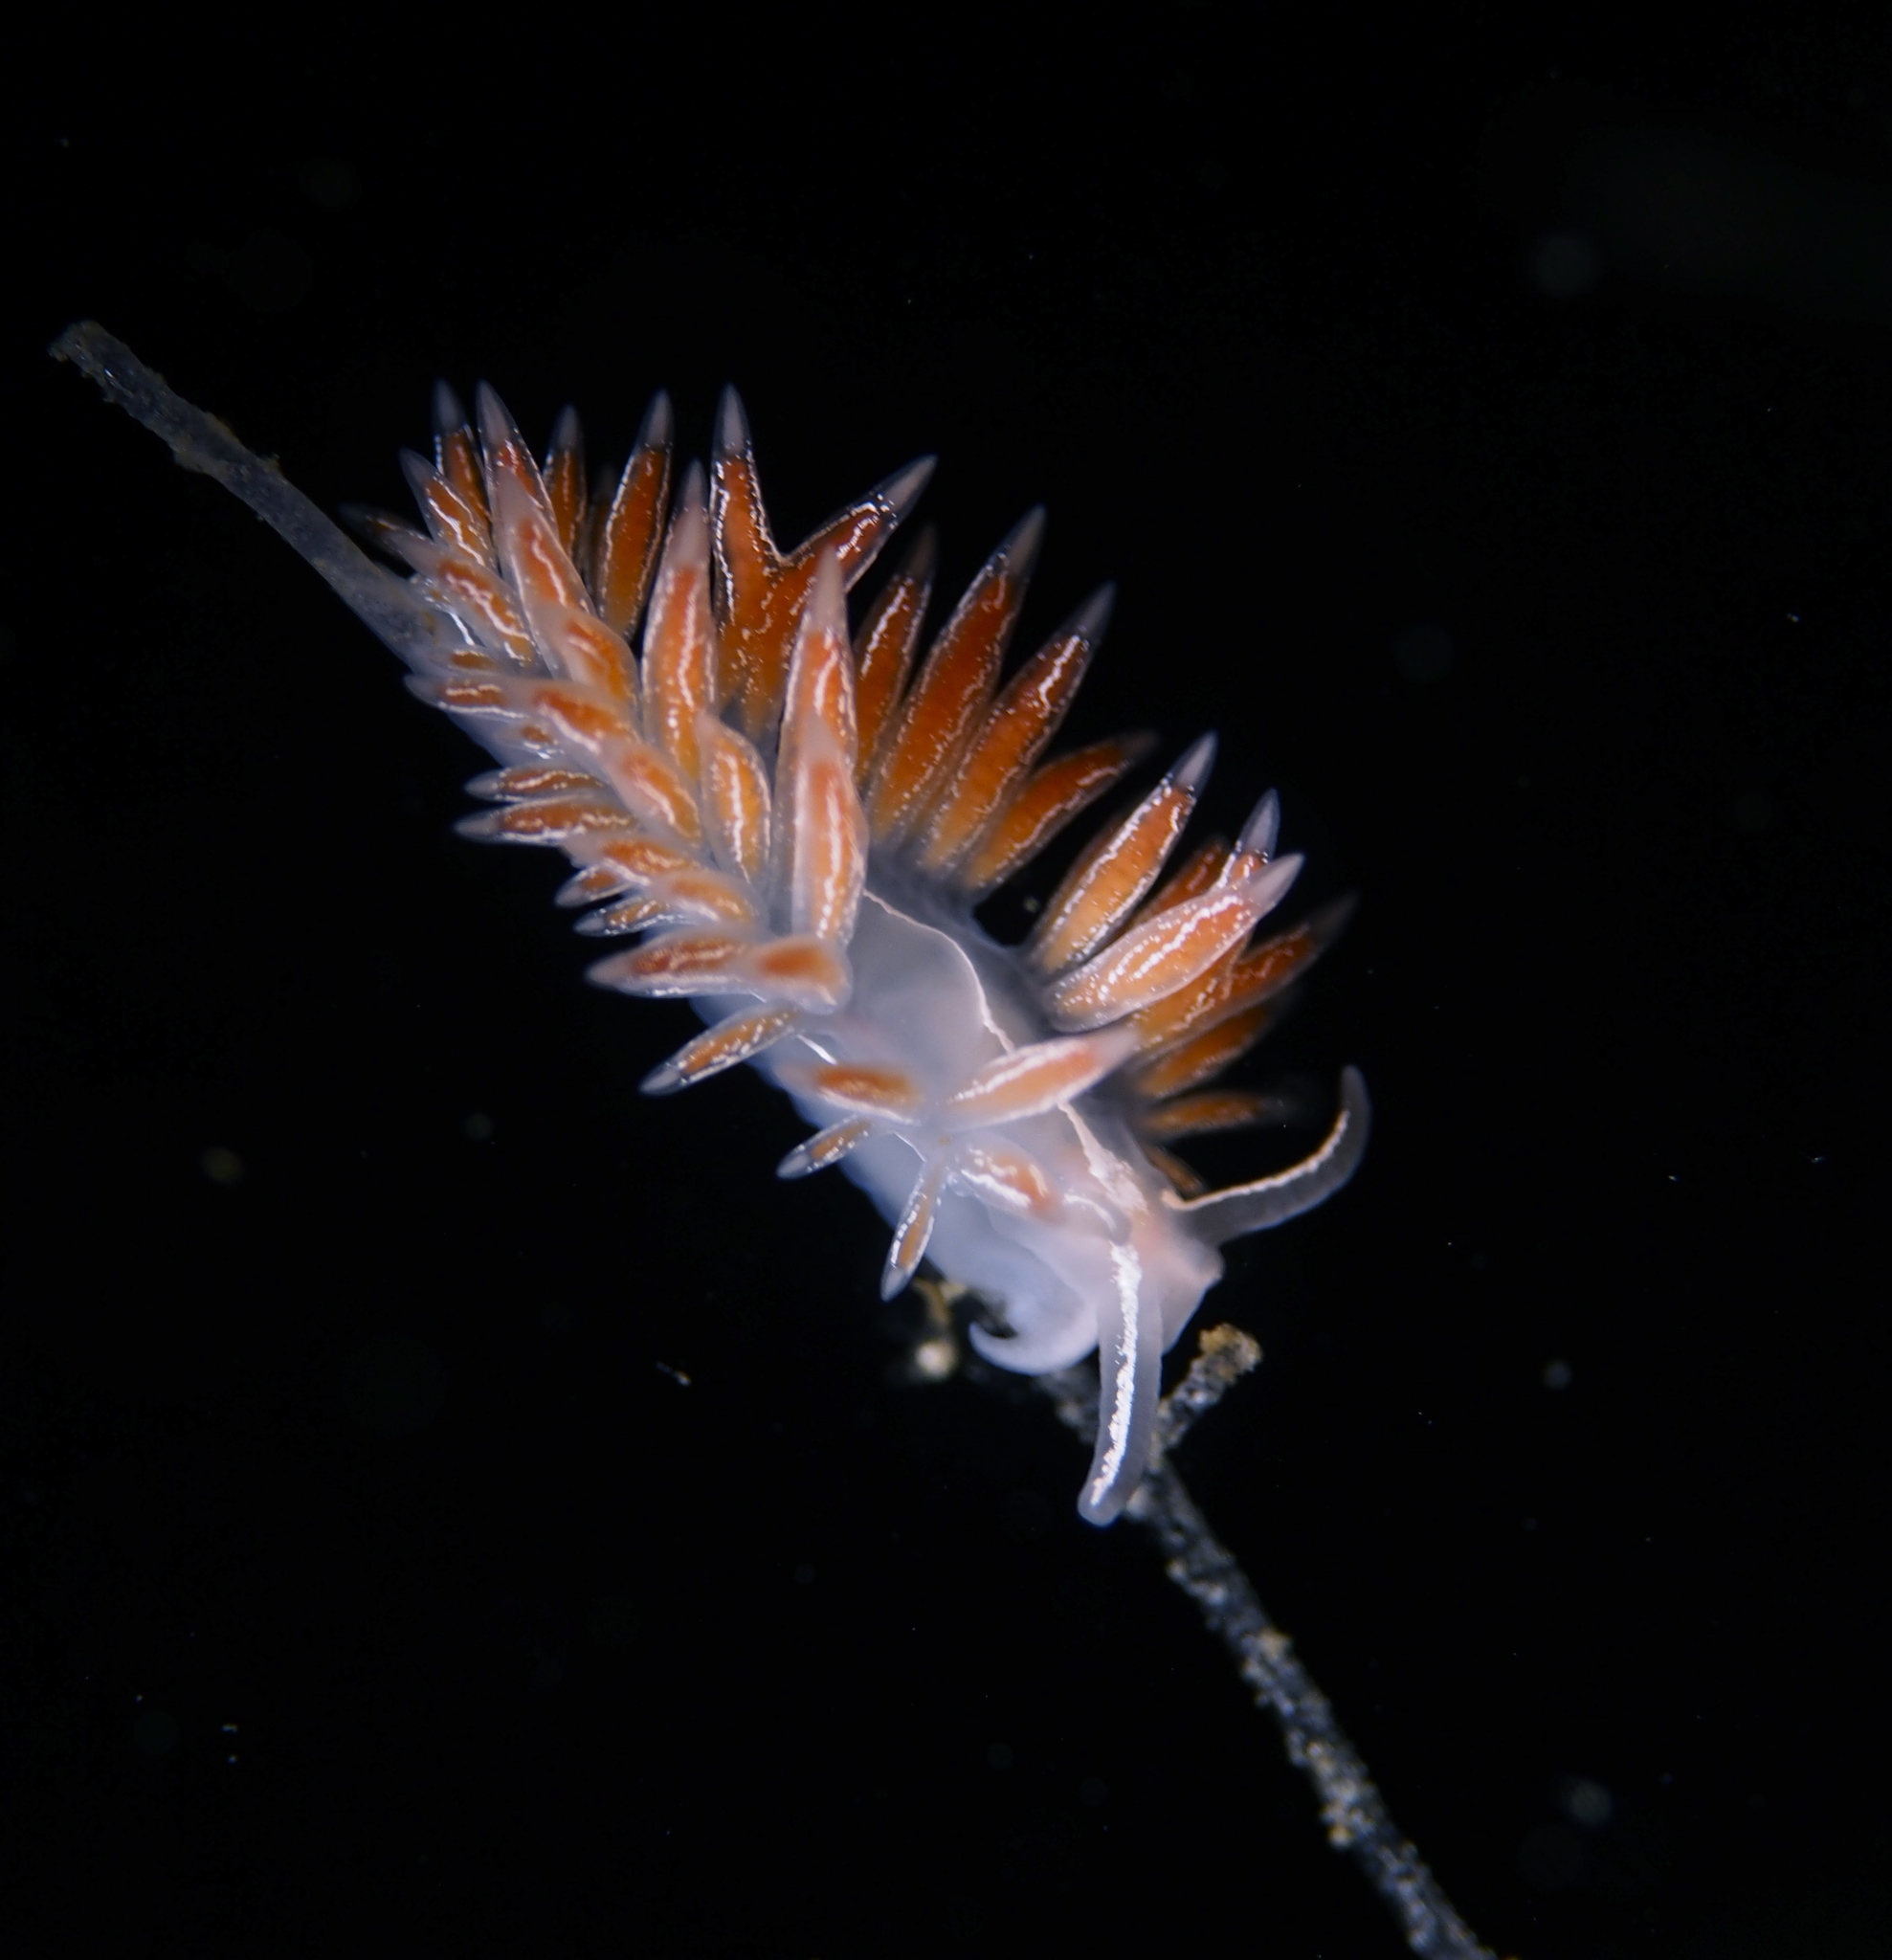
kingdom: Animalia
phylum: Mollusca
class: Gastropoda
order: Nudibranchia
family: Coryphellidae
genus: Coryphella
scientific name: Coryphella chriskaugei
